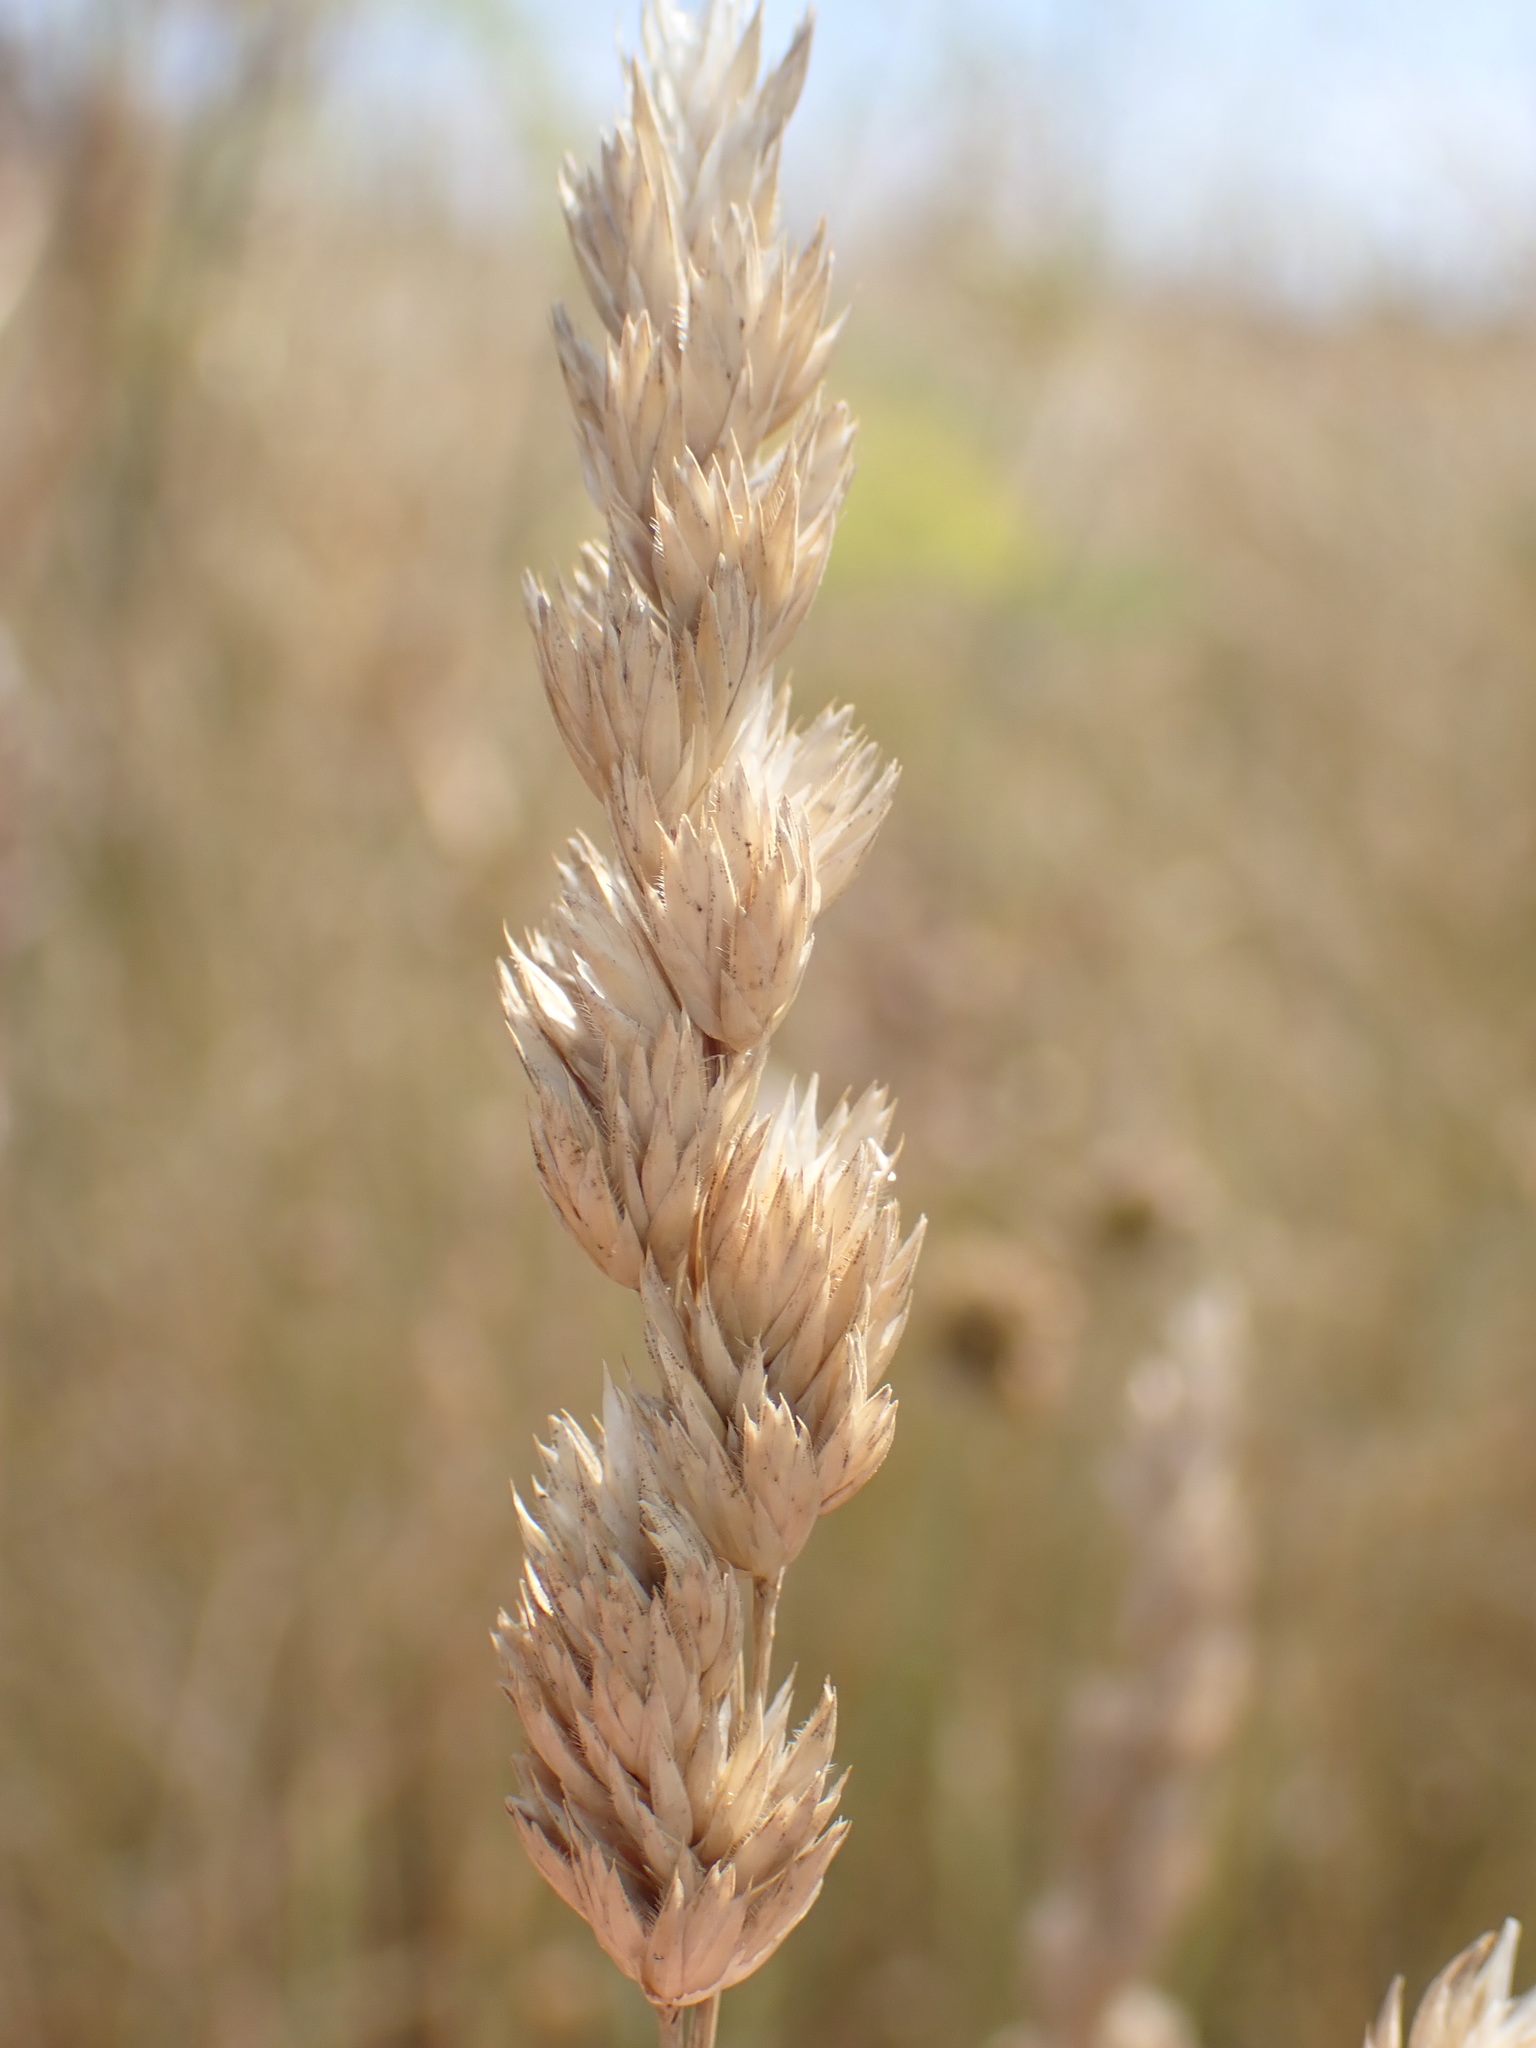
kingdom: Plantae
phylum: Tracheophyta
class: Liliopsida
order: Poales
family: Poaceae
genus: Dactylis
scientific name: Dactylis glomerata
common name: Orchardgrass
